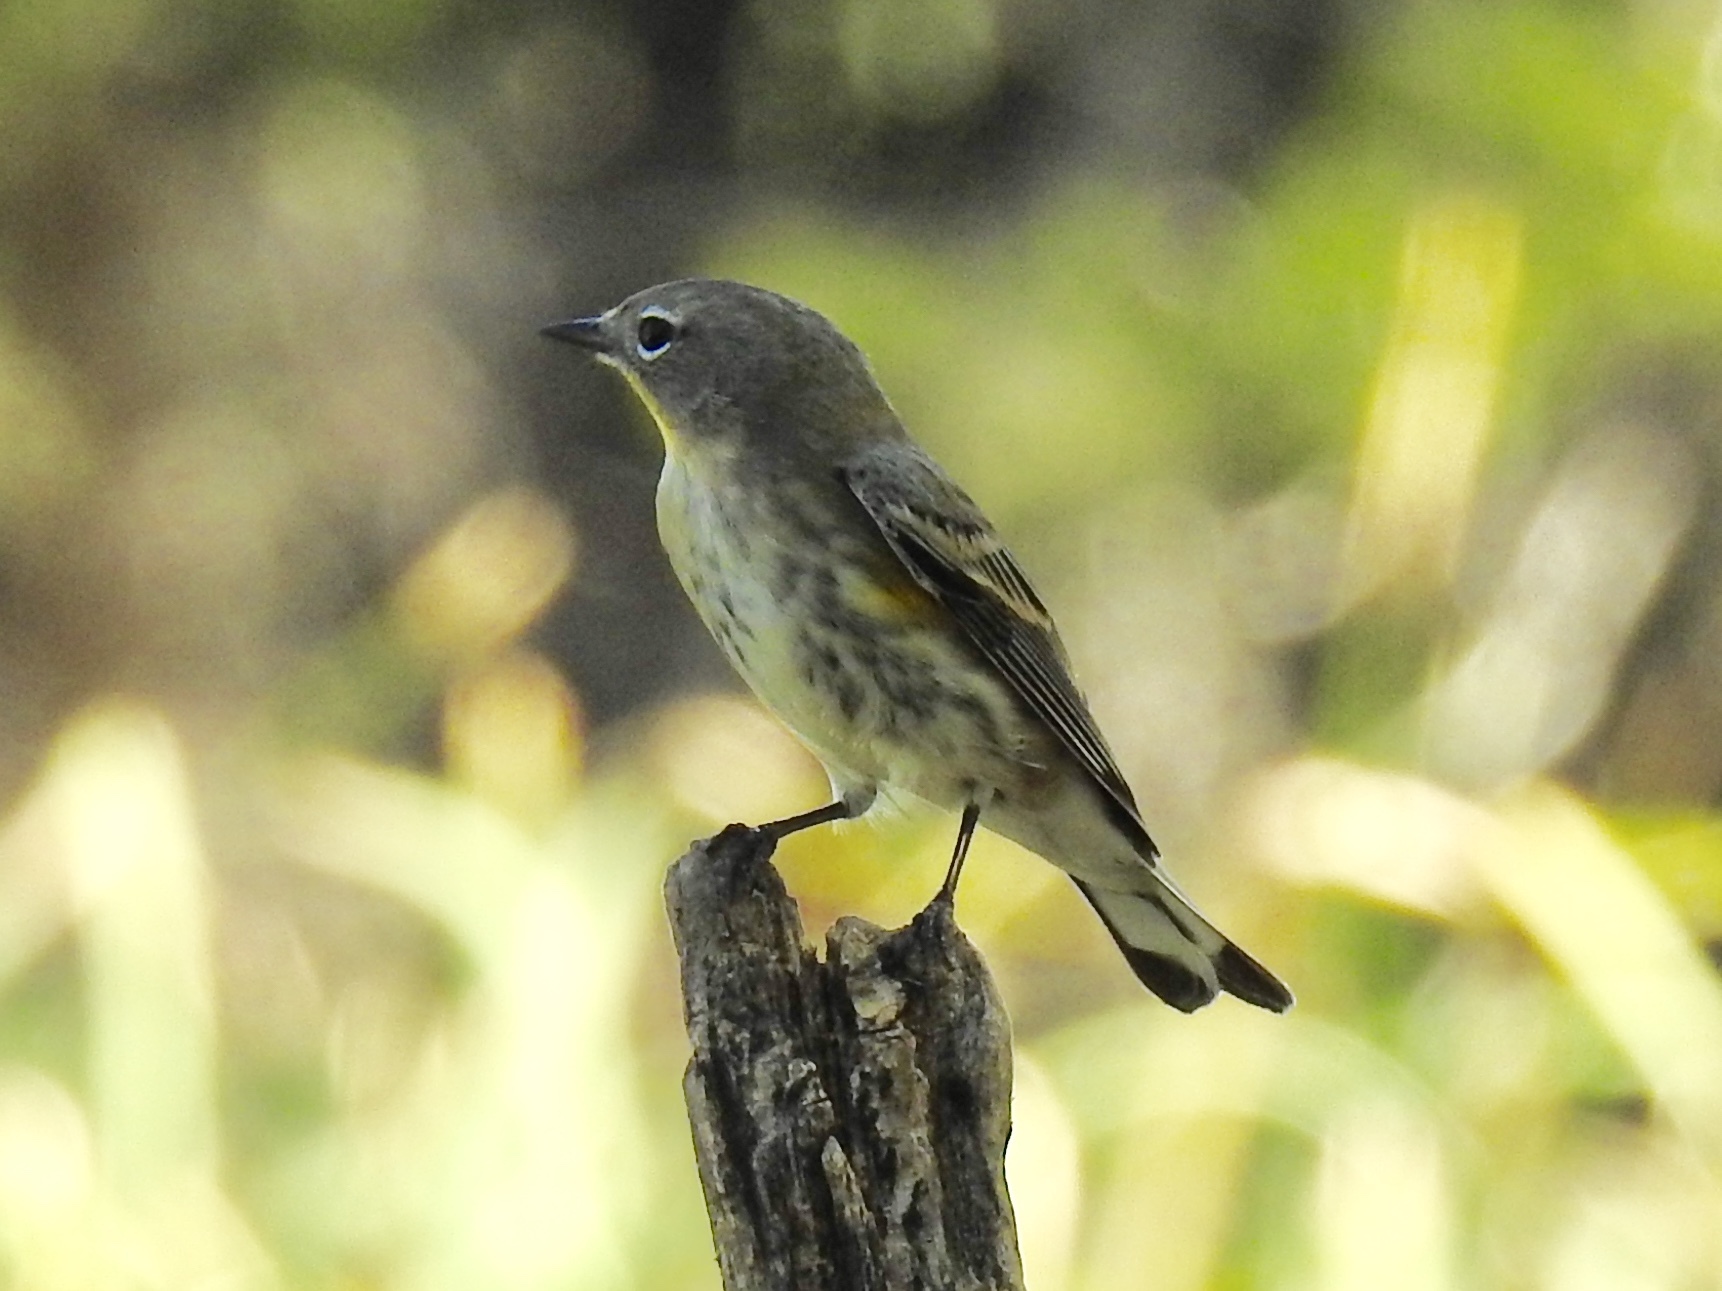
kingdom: Animalia
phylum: Chordata
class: Aves
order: Passeriformes
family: Parulidae
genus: Setophaga
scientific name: Setophaga coronata
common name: Myrtle warbler
